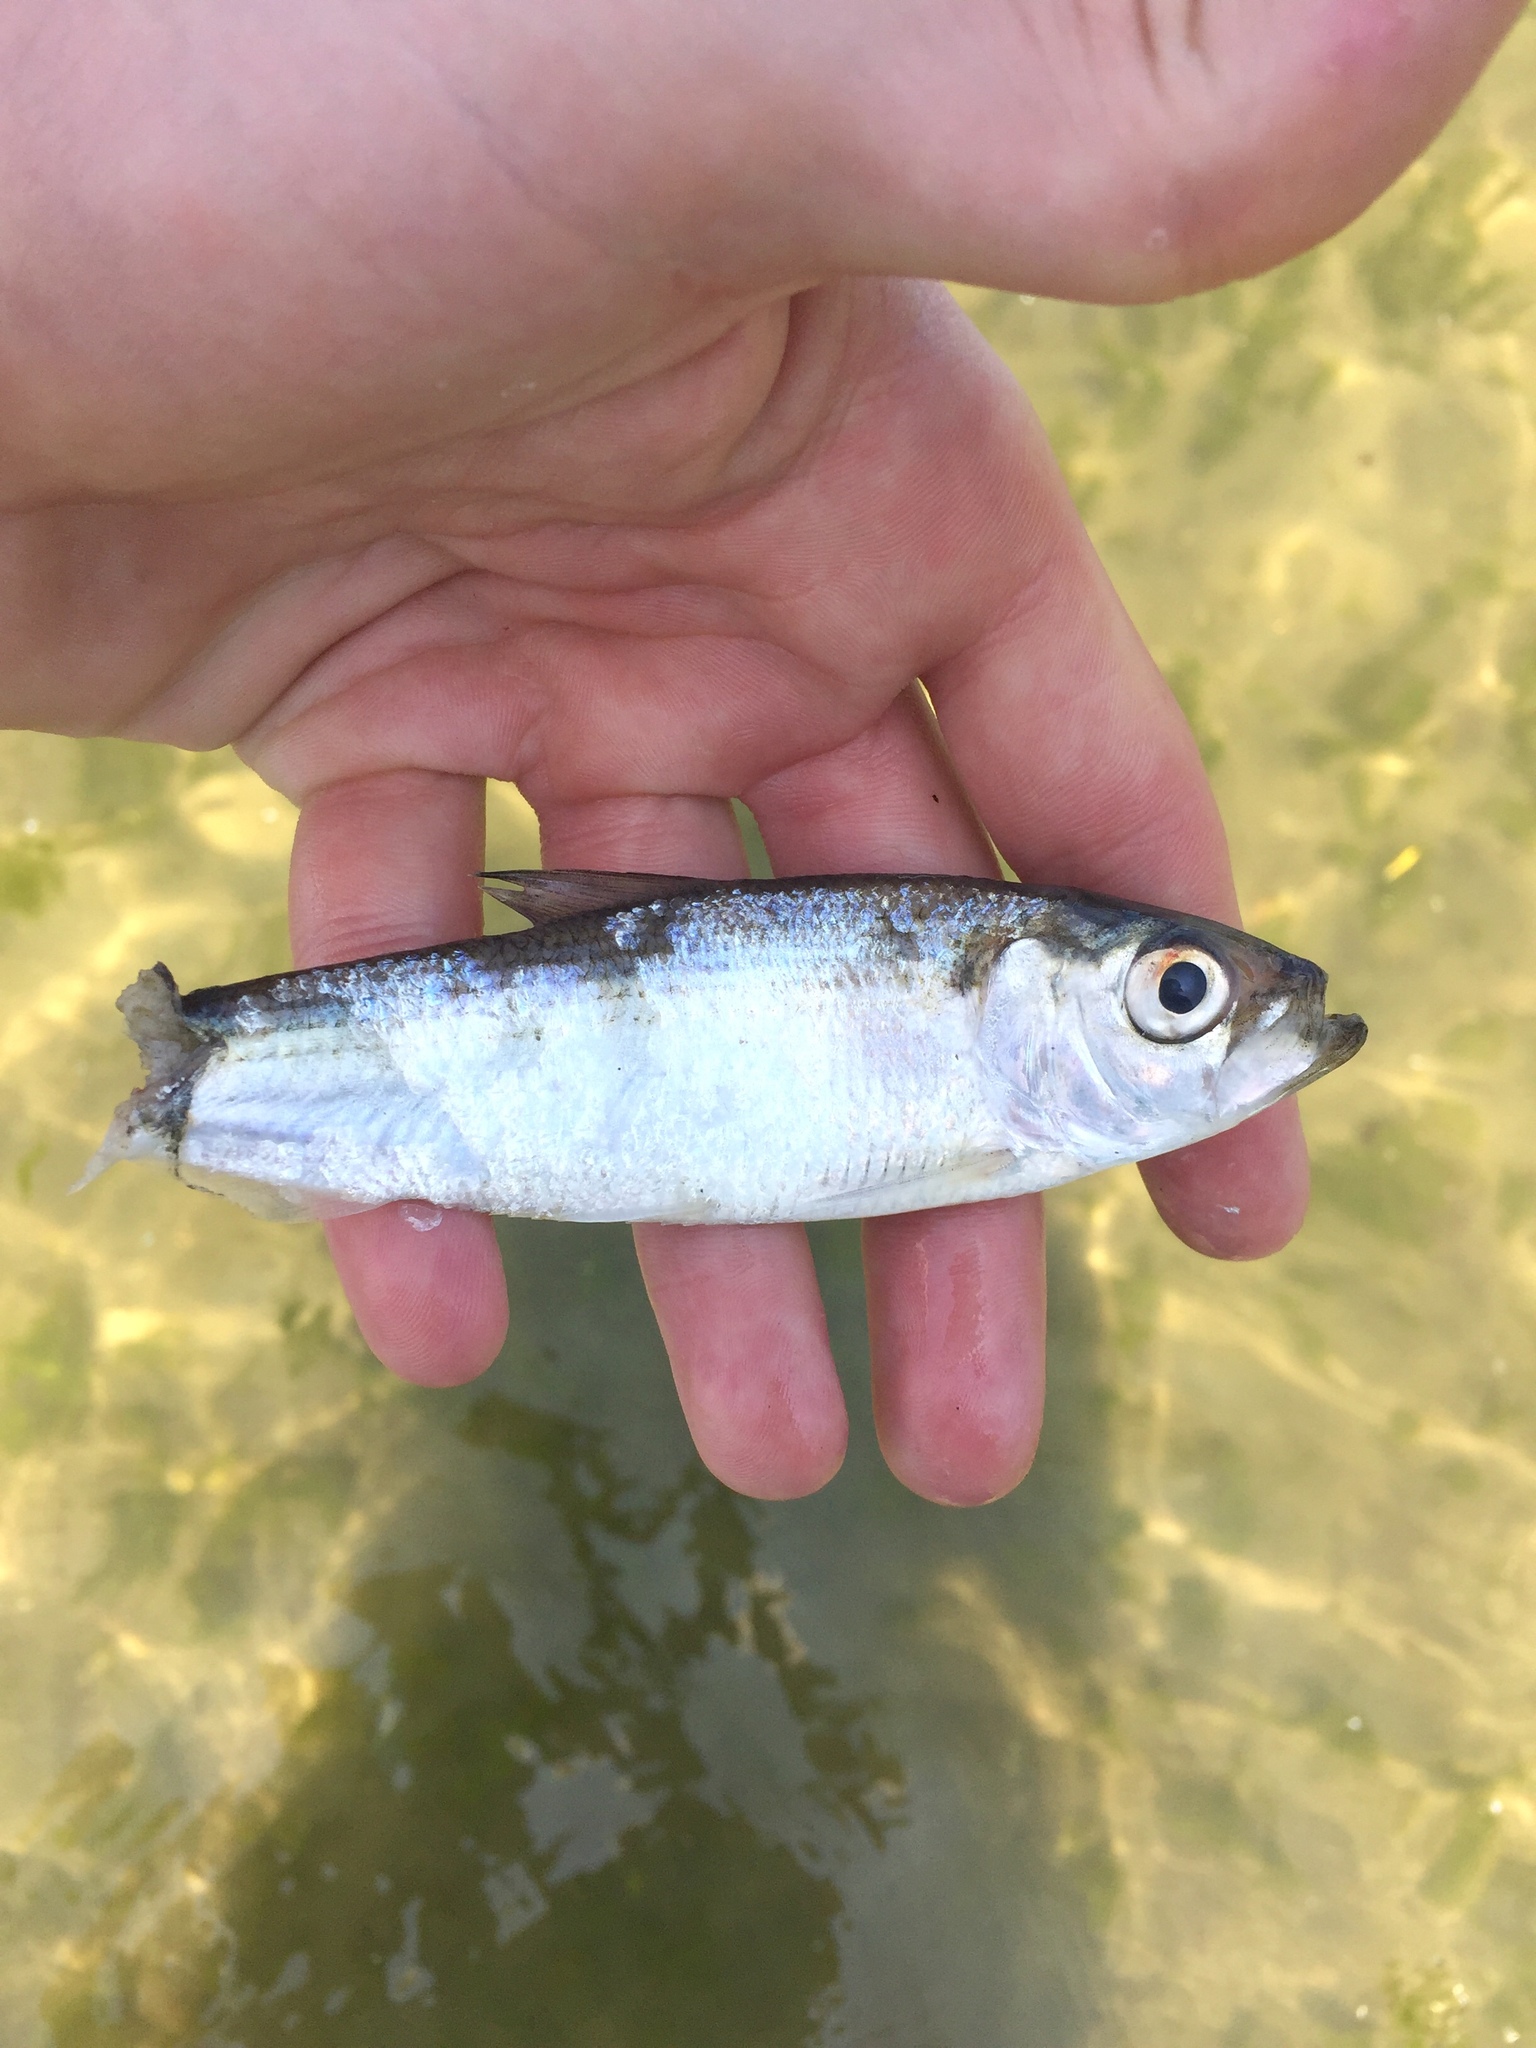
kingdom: Animalia
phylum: Chordata
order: Clupeiformes
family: Clupeidae
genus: Alosa
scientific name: Alosa pseudoharengus
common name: Alewife
